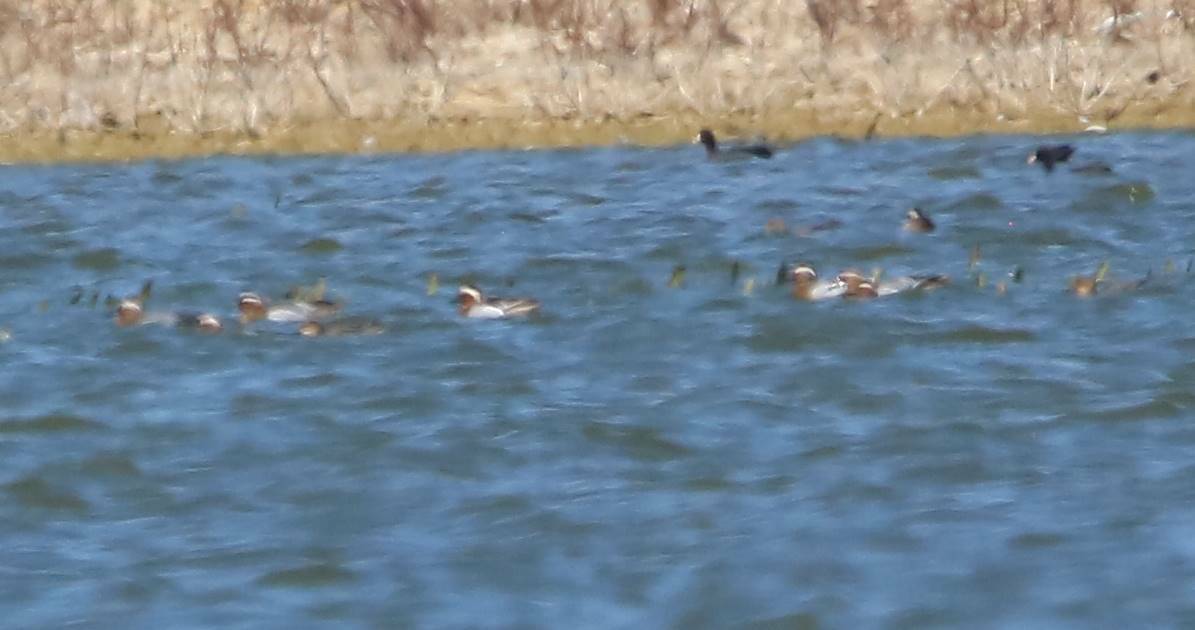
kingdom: Animalia
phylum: Chordata
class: Aves
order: Anseriformes
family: Anatidae
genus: Spatula
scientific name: Spatula querquedula
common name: Garganey
